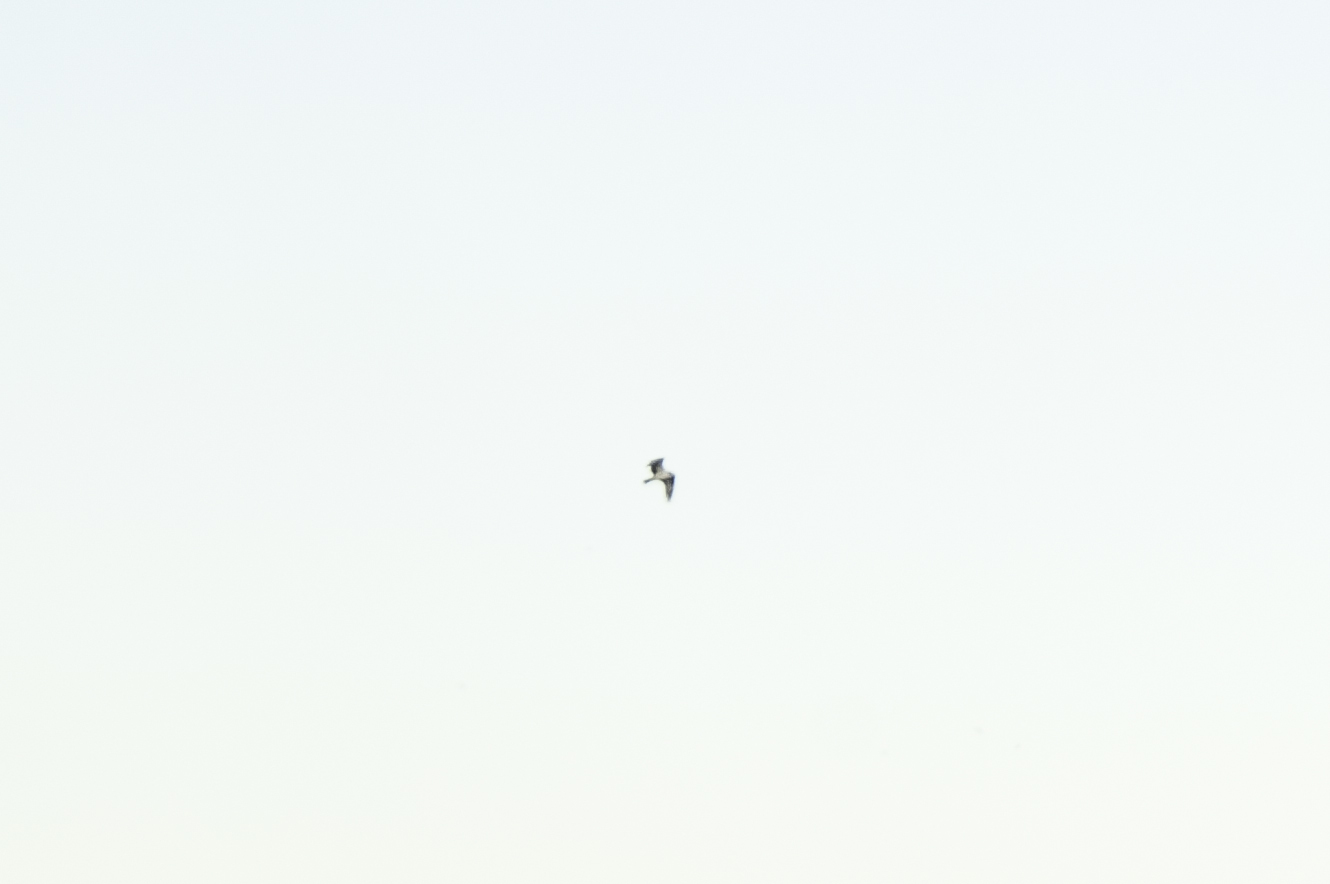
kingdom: Animalia
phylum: Chordata
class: Aves
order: Accipitriformes
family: Pandionidae
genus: Pandion
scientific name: Pandion haliaetus
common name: Osprey
